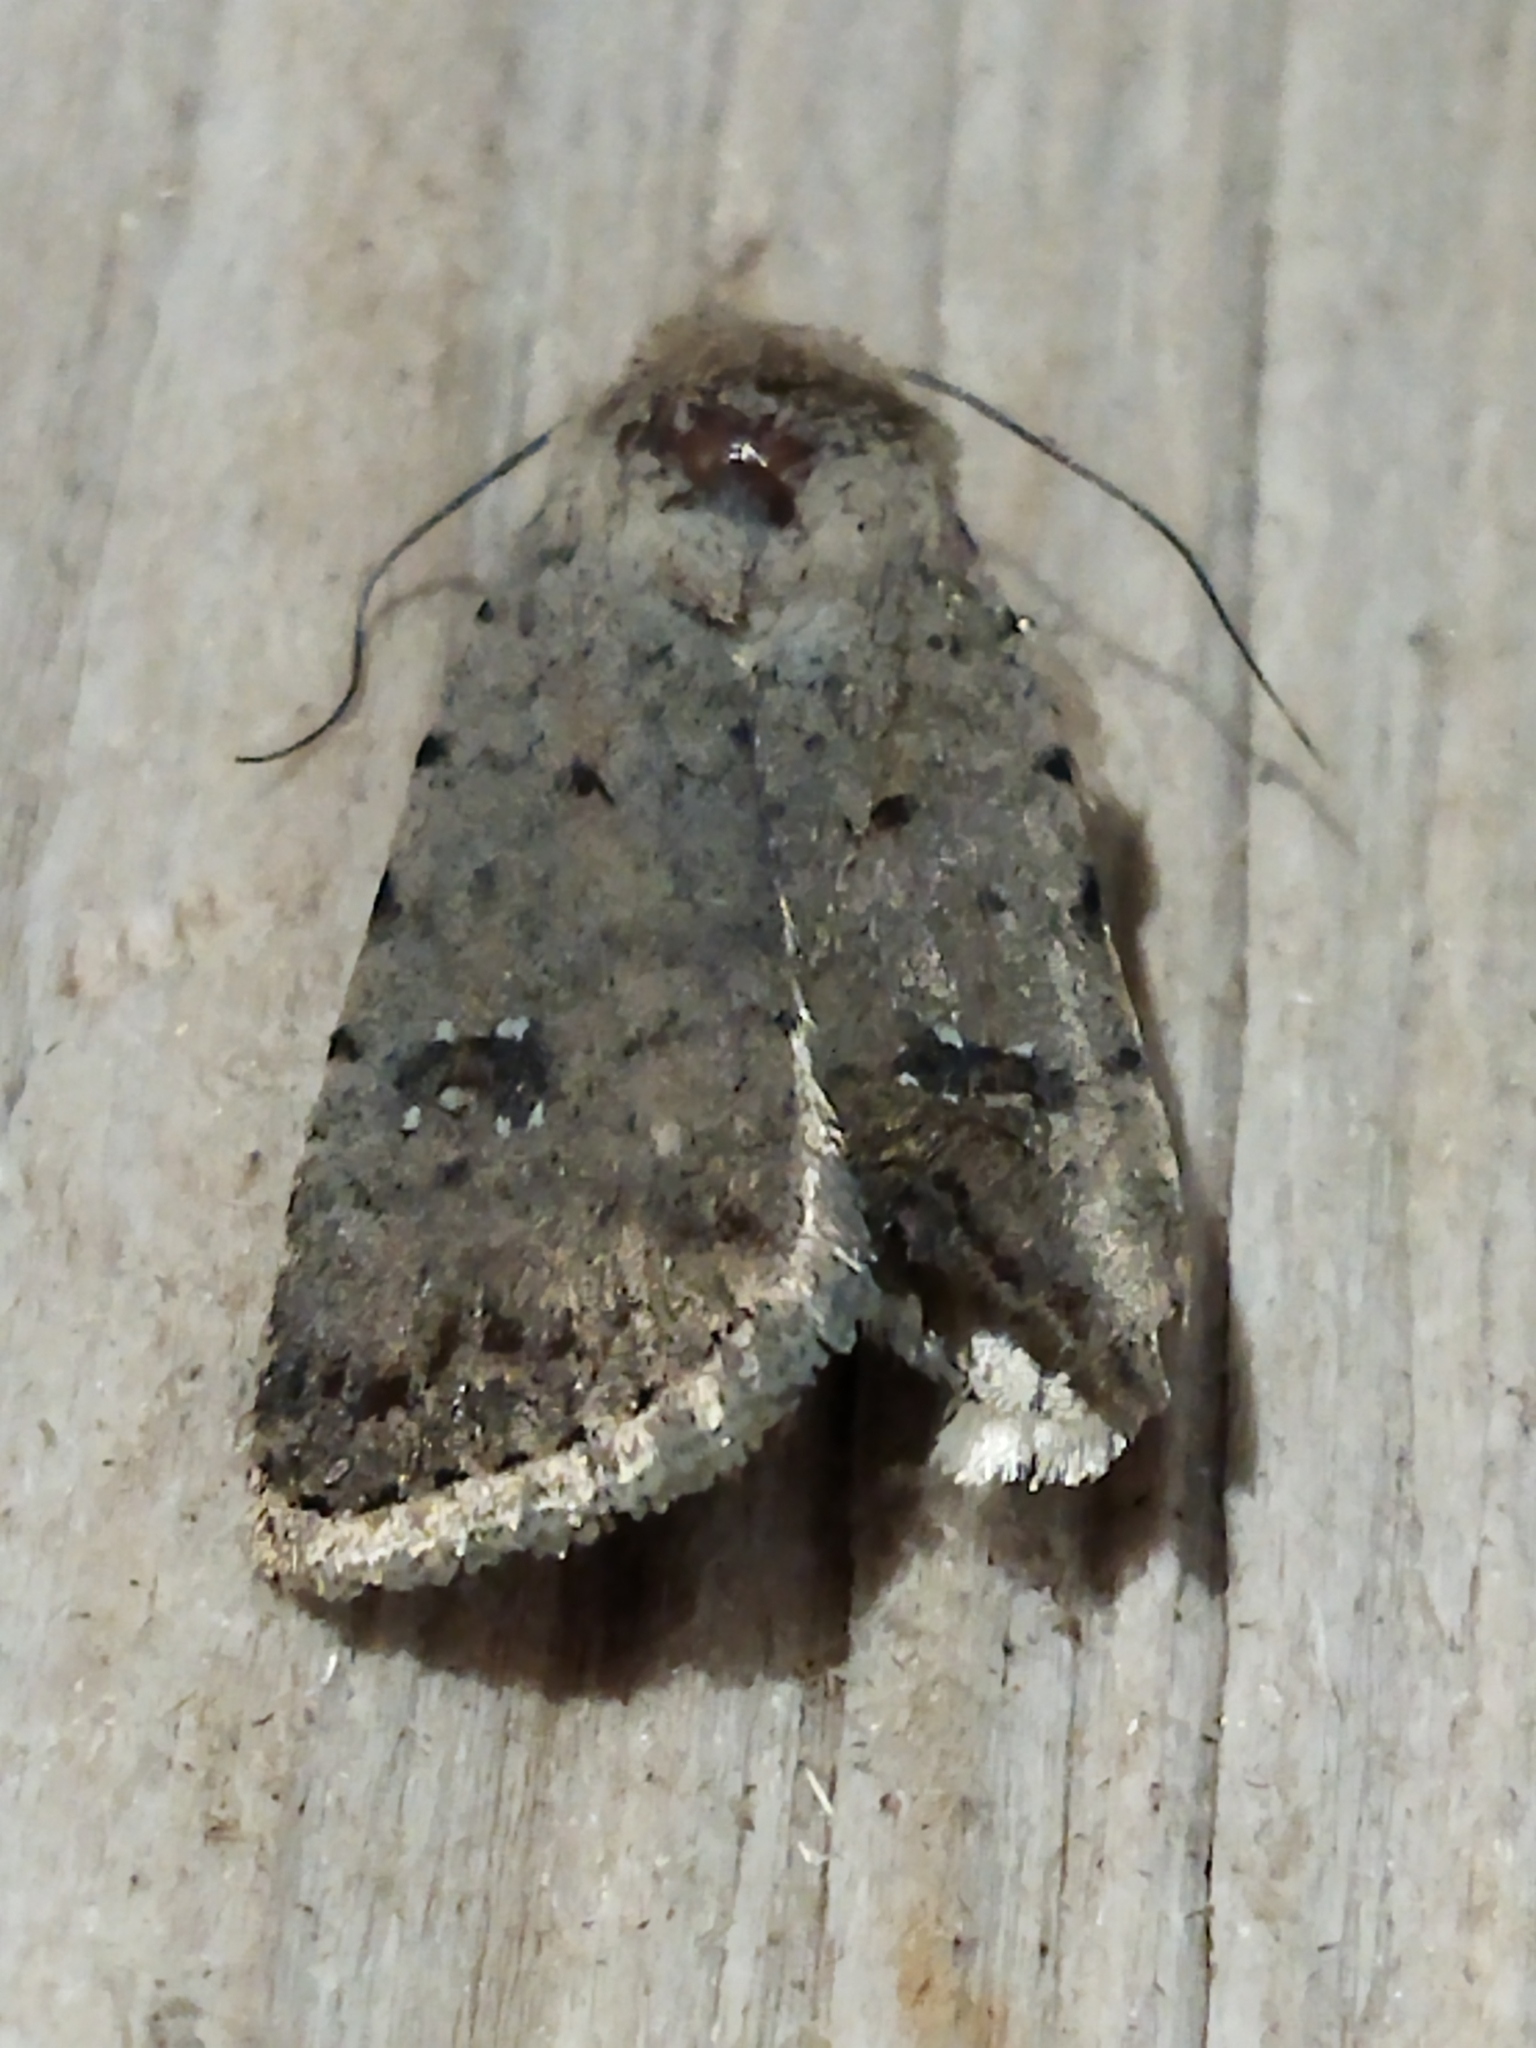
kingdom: Animalia
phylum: Arthropoda
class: Insecta
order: Lepidoptera
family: Noctuidae
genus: Caradrina
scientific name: Caradrina clavipalpis
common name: Pale mottled willow
